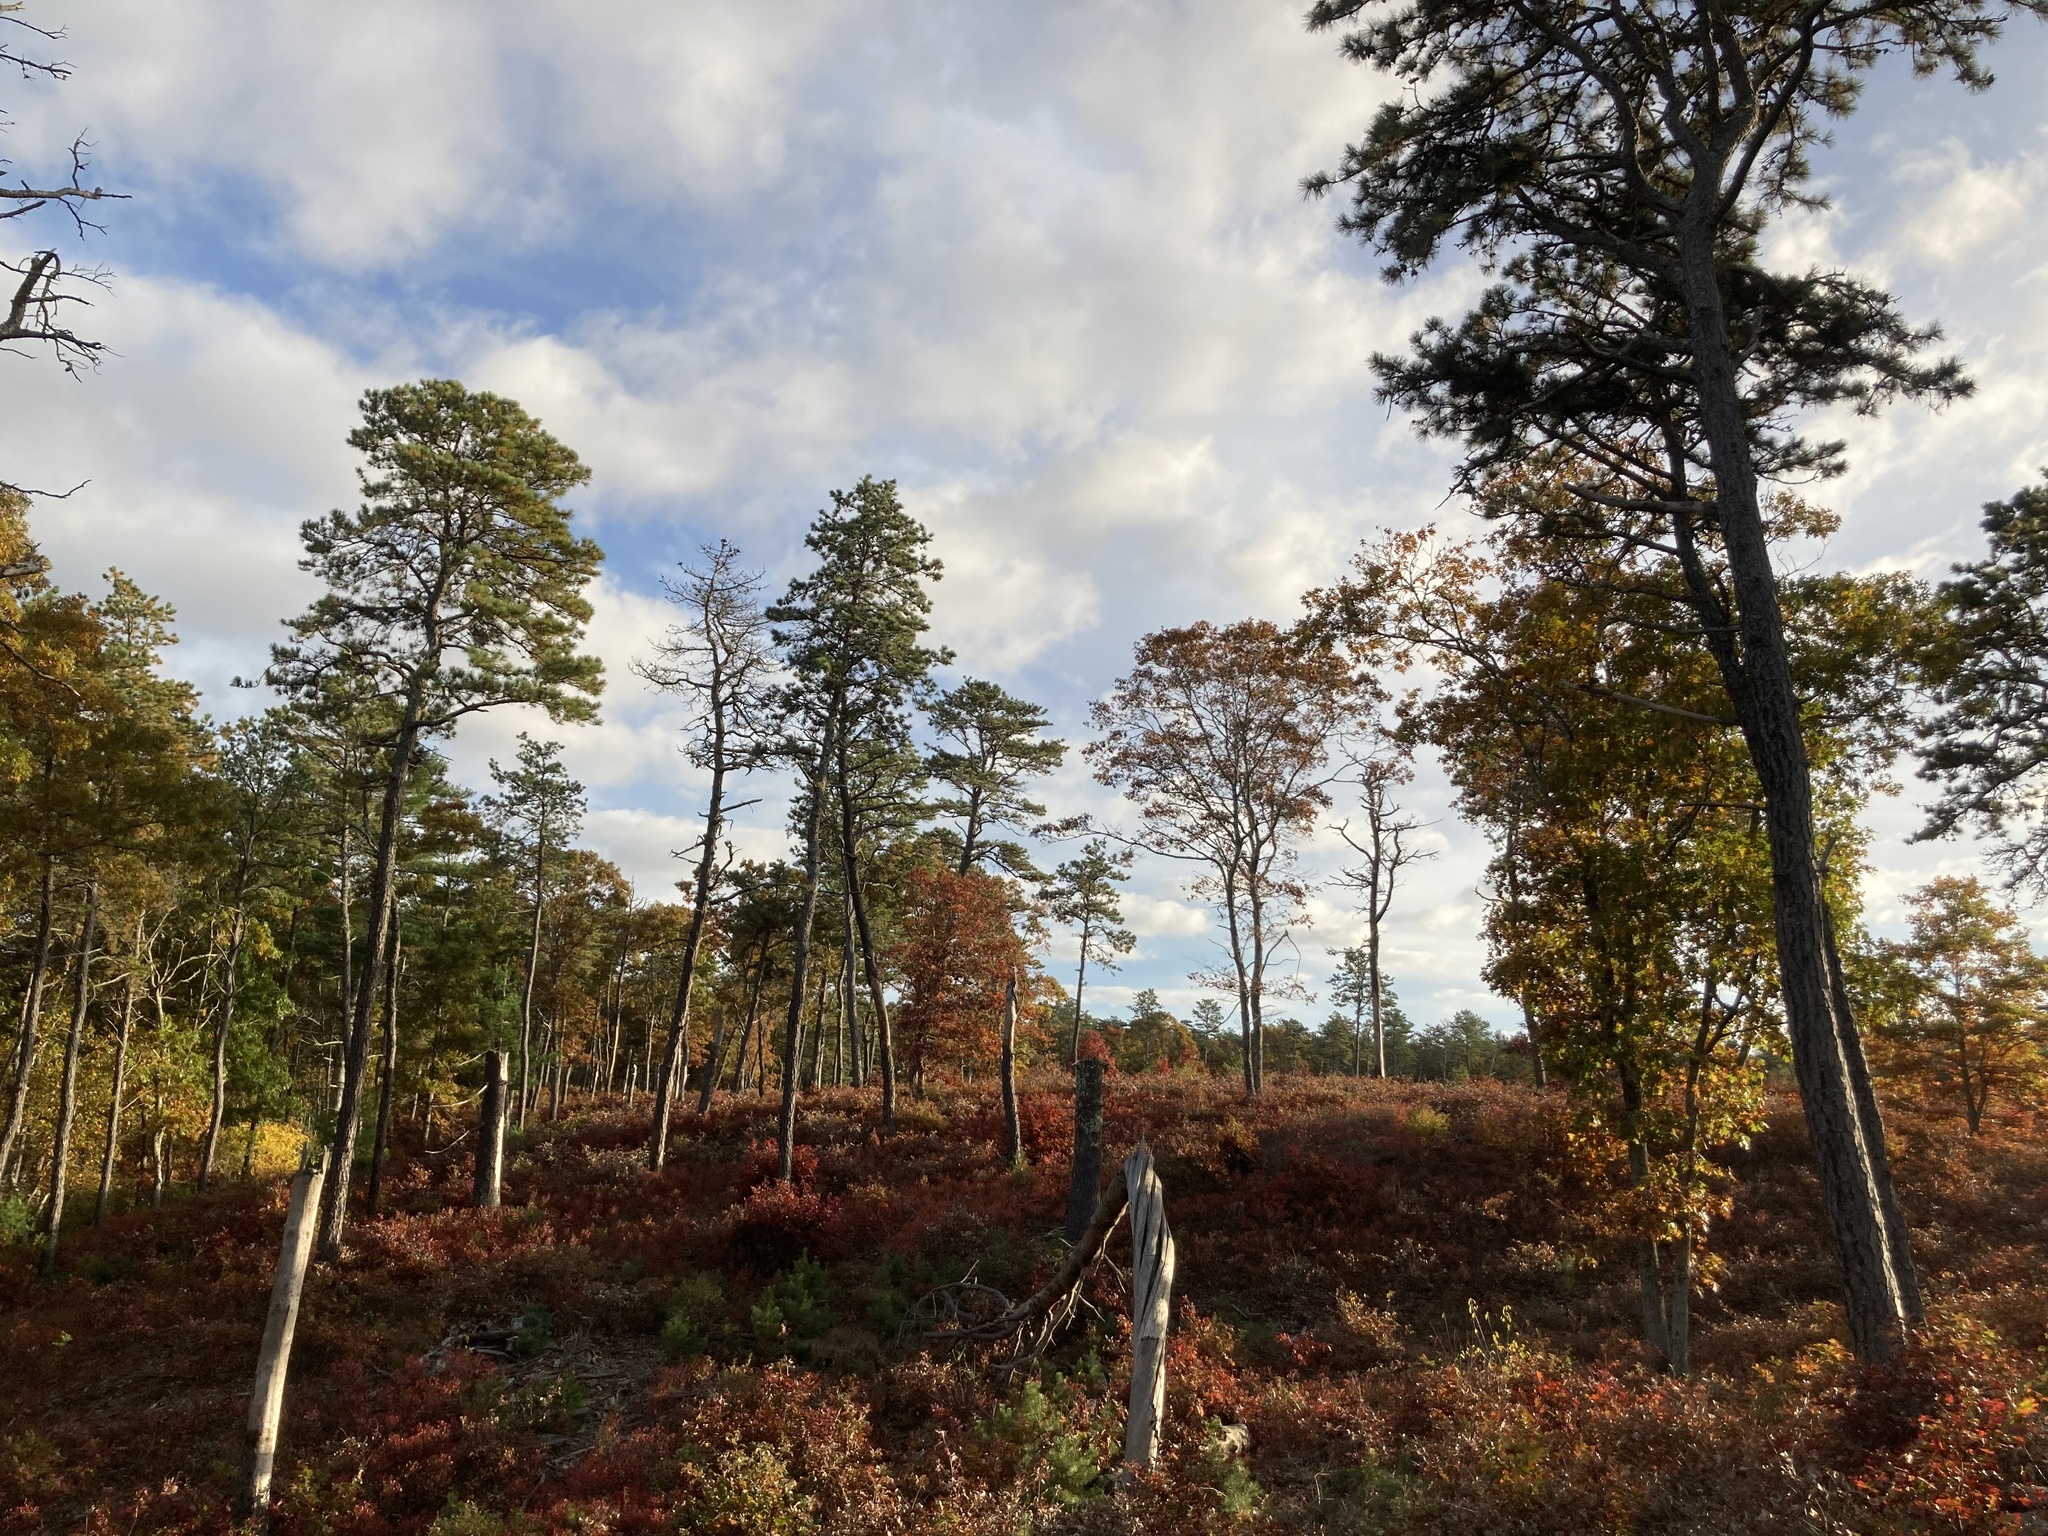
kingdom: Plantae
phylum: Tracheophyta
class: Pinopsida
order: Pinales
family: Pinaceae
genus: Pinus
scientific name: Pinus rigida
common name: Pitch pine
